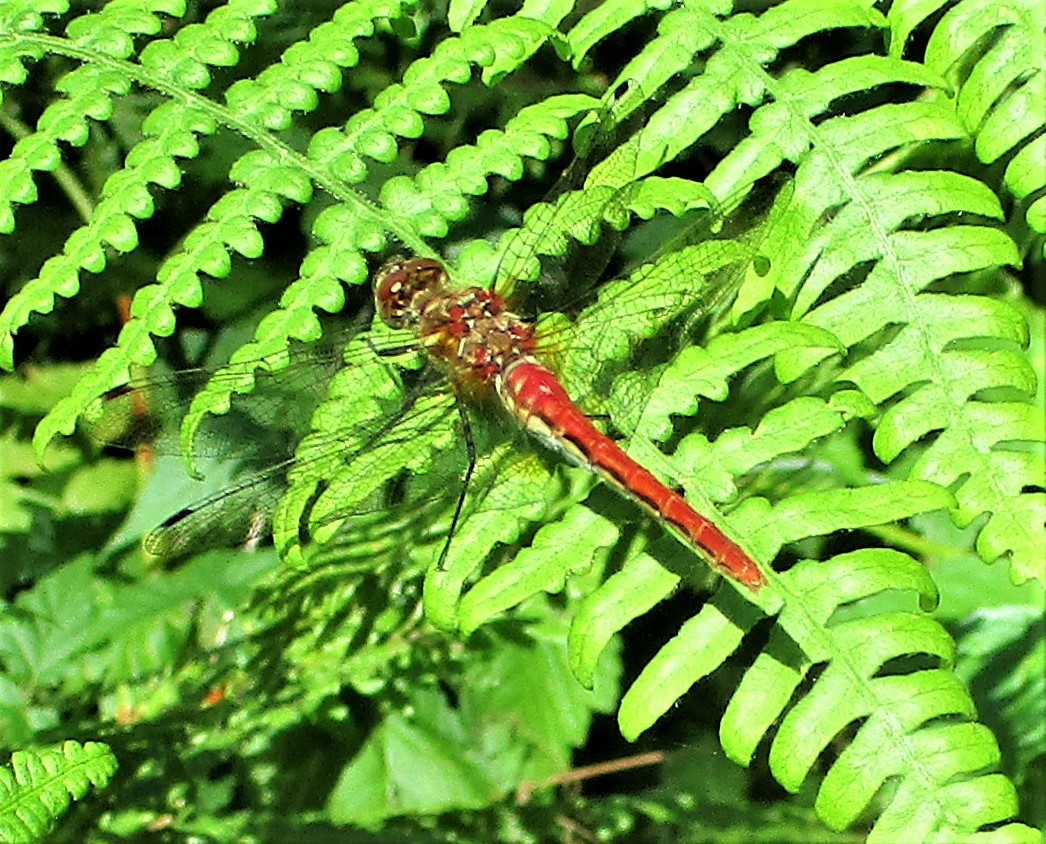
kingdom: Animalia
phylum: Arthropoda
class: Insecta
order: Odonata
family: Libellulidae
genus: Sympetrum
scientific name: Sympetrum pallipes
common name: Striped meadowhawk
